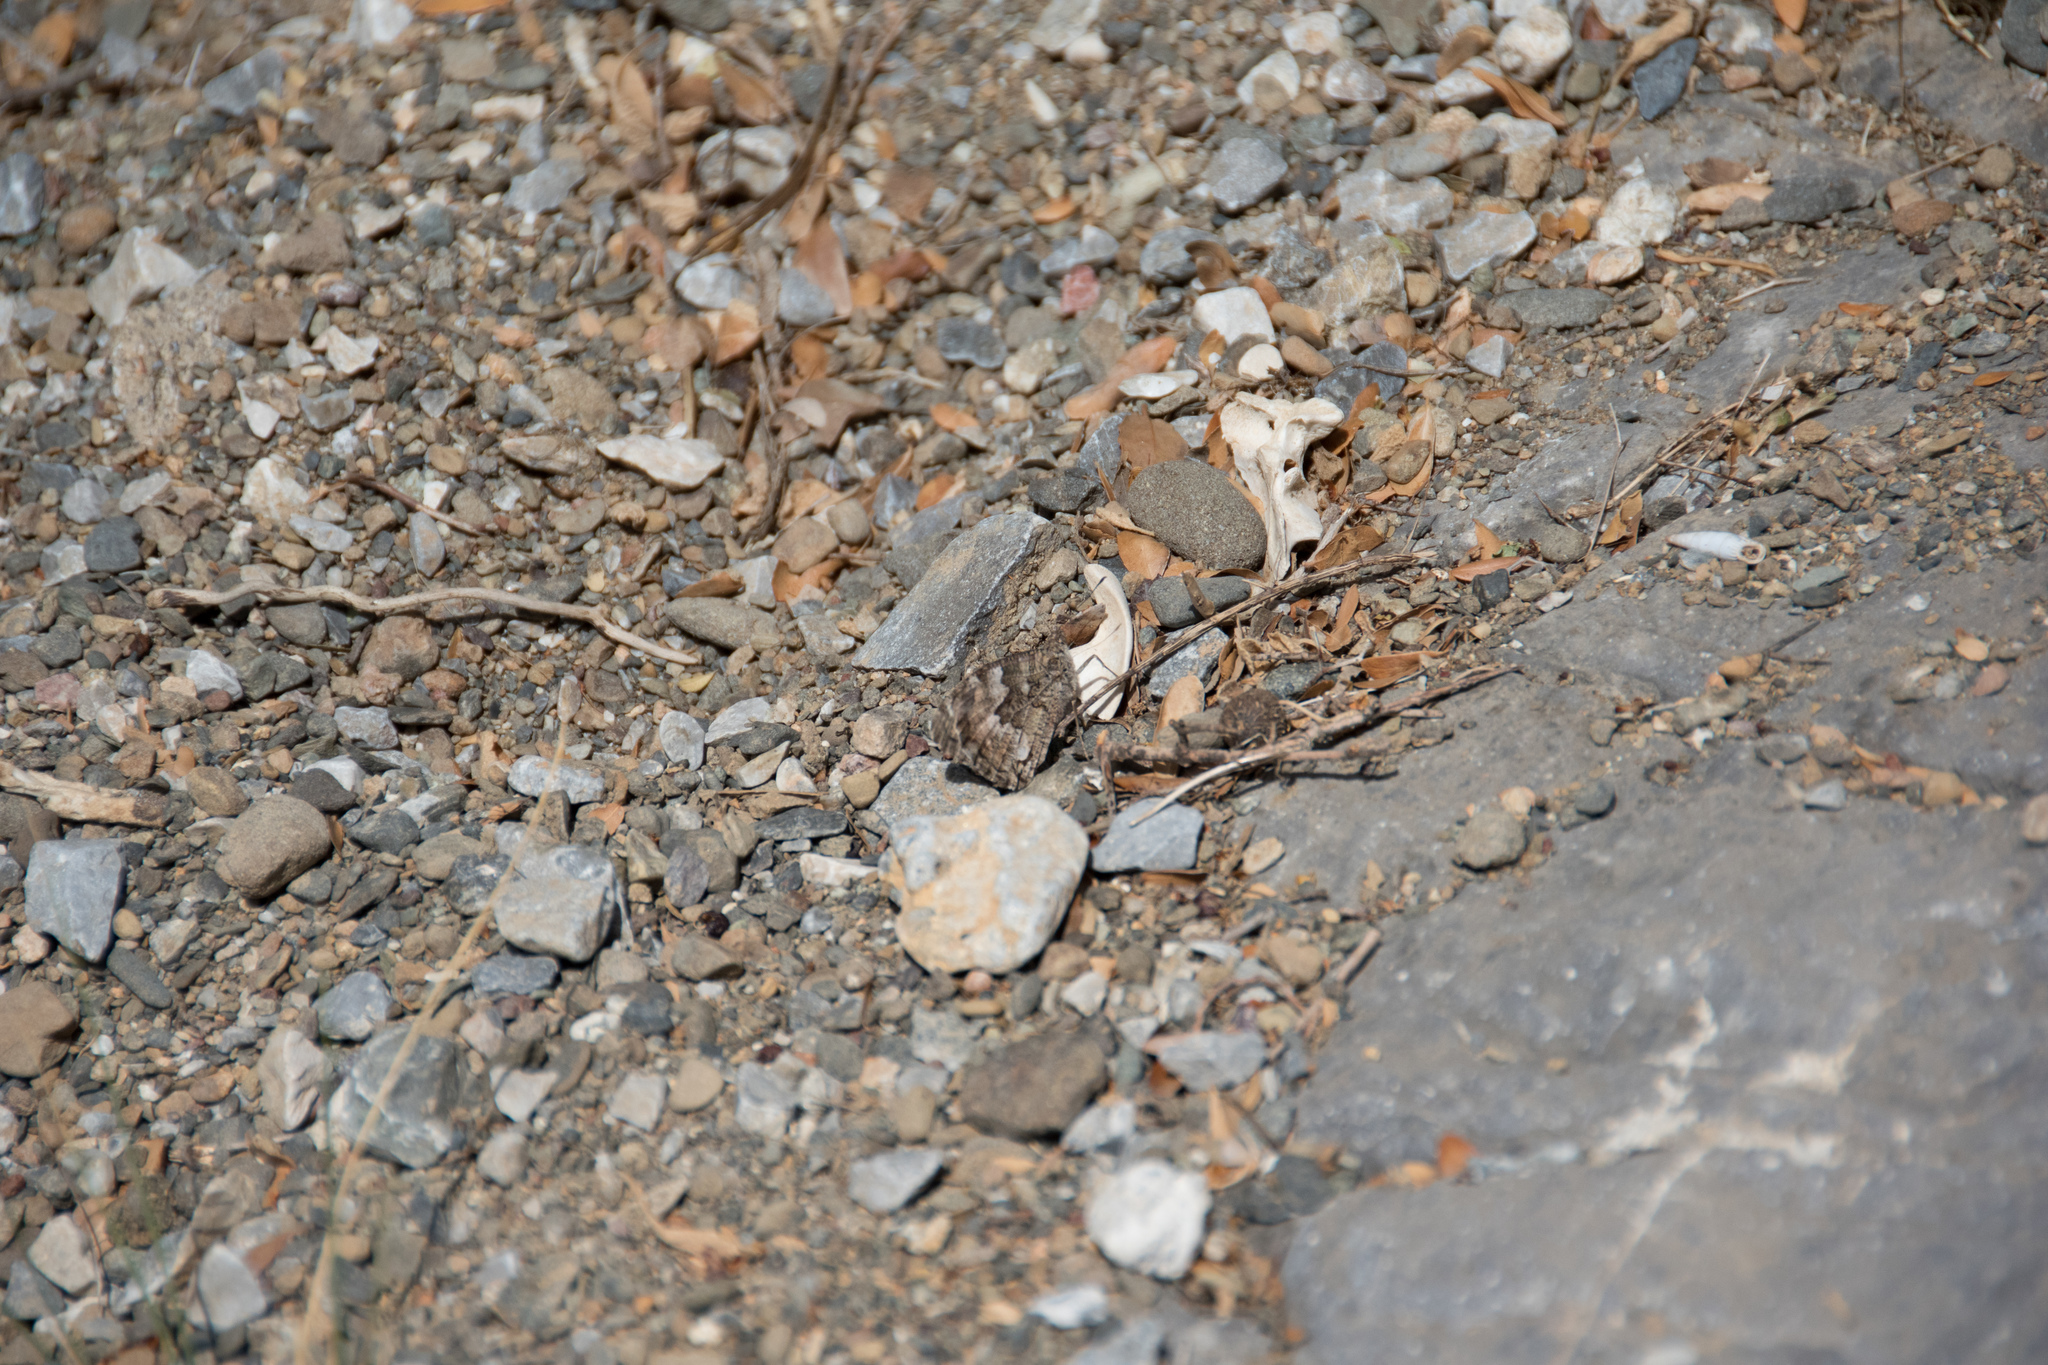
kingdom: Animalia
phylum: Arthropoda
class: Insecta
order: Lepidoptera
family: Nymphalidae
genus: Hipparchia
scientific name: Hipparchia cretica
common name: Cretan grayling
